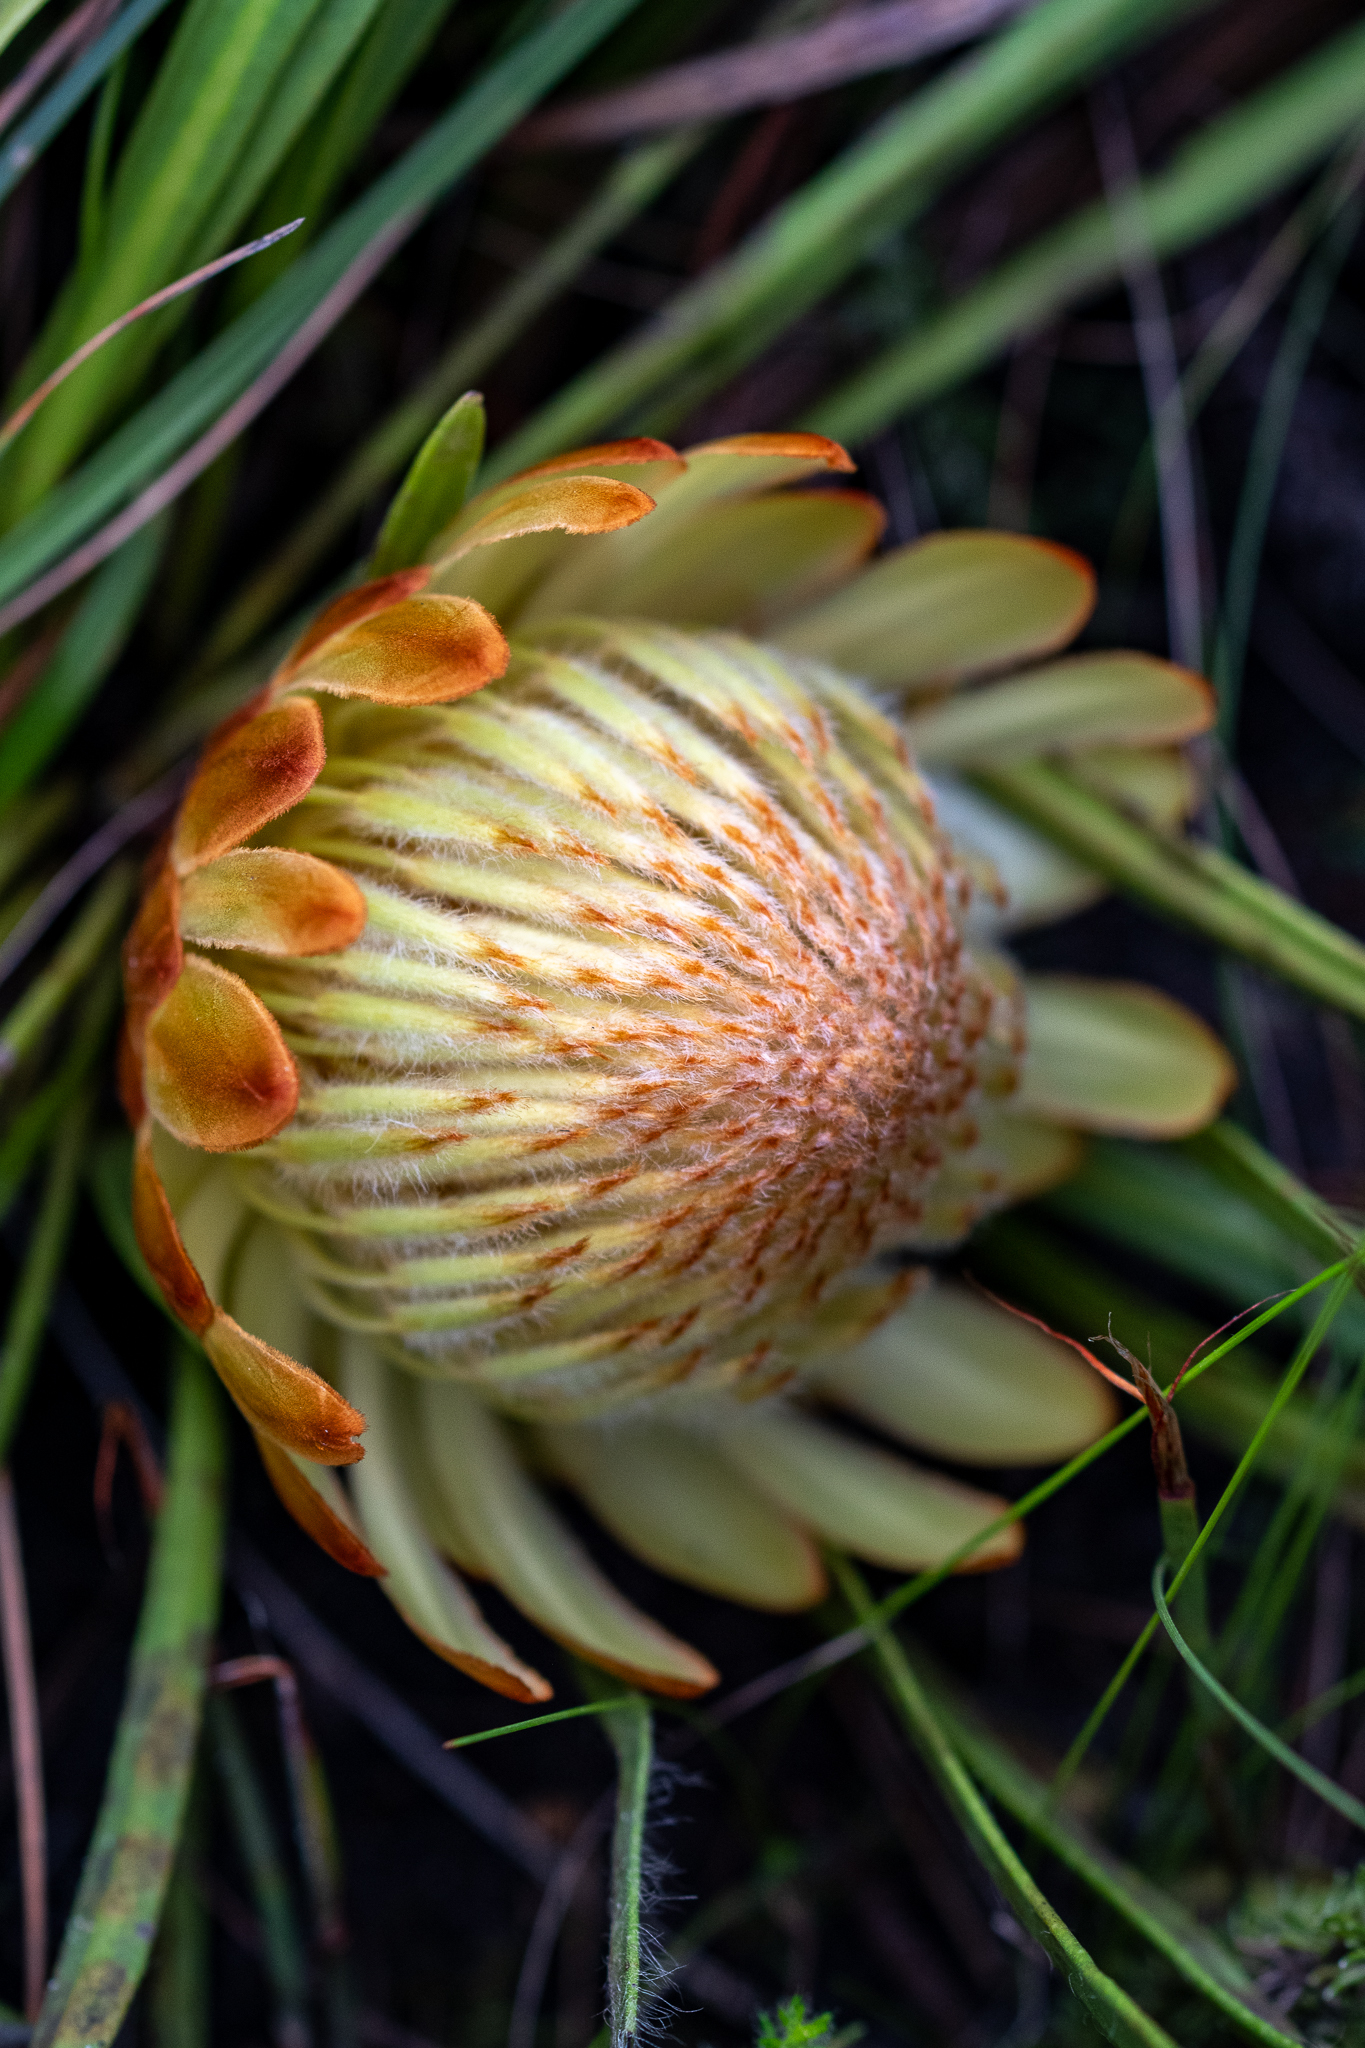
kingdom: Plantae
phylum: Tracheophyta
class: Magnoliopsida
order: Proteales
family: Proteaceae
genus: Protea
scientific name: Protea scabra
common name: Sandpaper-leaf sugarbush
